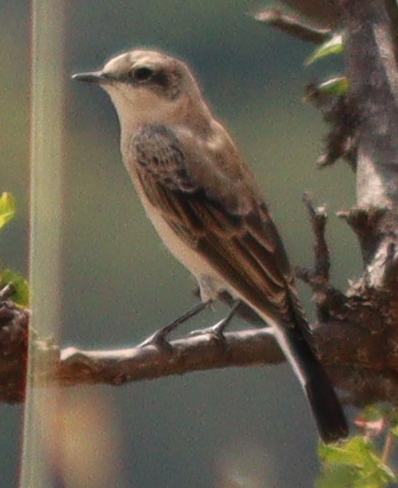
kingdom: Animalia
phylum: Chordata
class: Aves
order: Passeriformes
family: Muscicapidae
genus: Oenanthe
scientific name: Oenanthe oenanthe
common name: Northern wheatear
